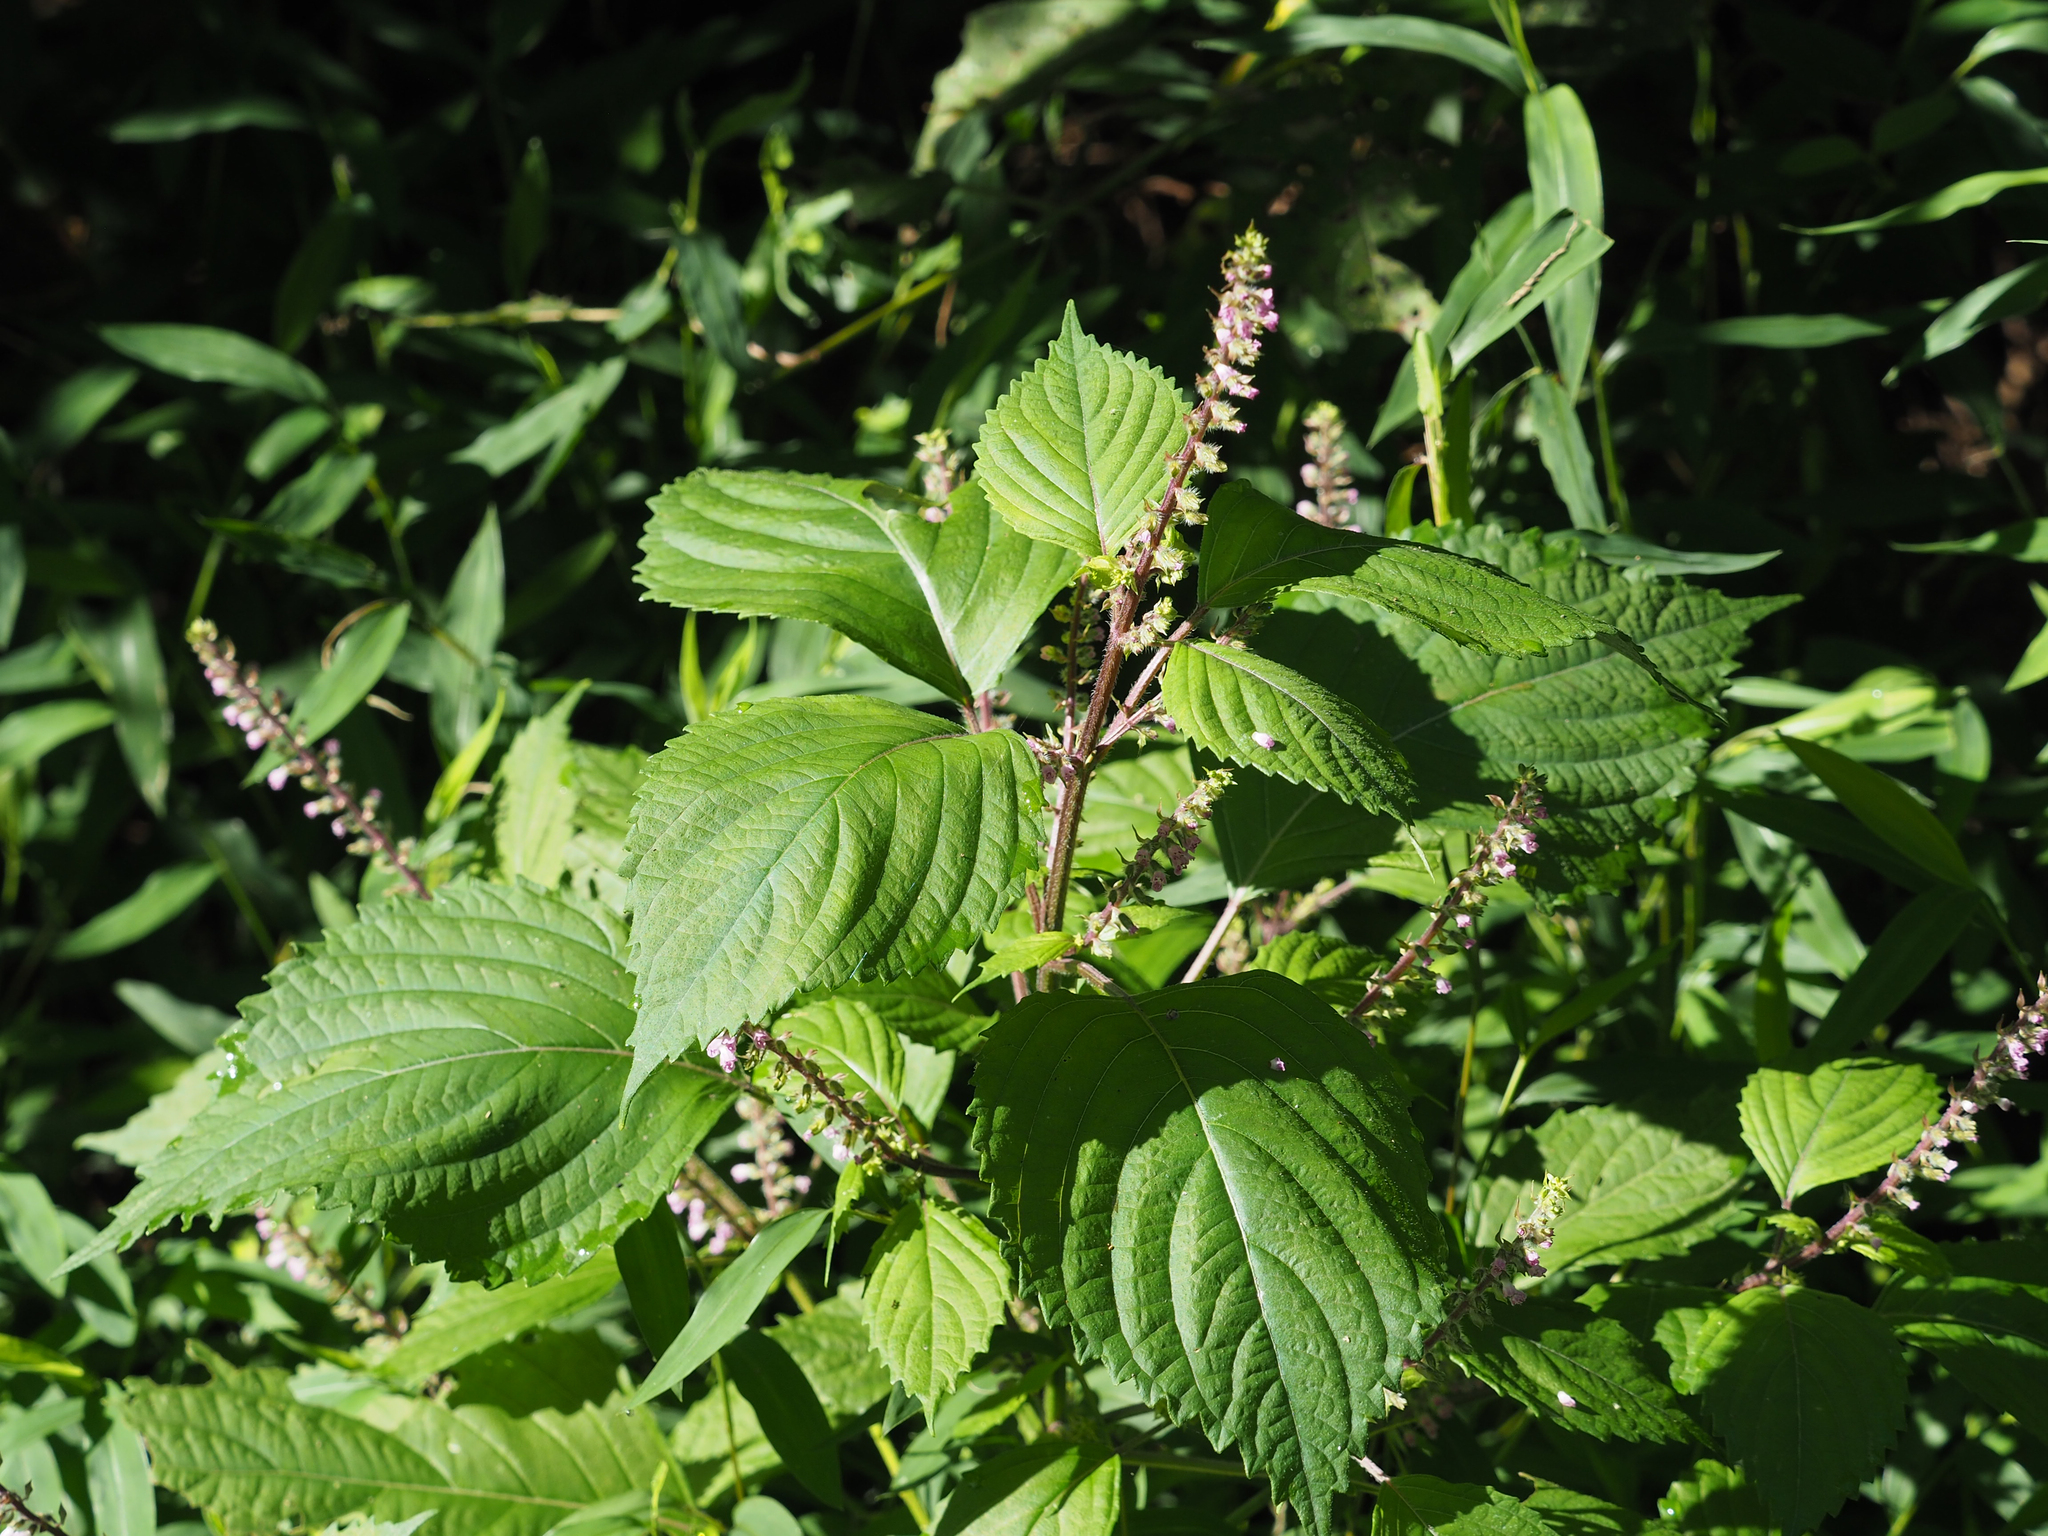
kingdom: Plantae
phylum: Tracheophyta
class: Magnoliopsida
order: Lamiales
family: Lamiaceae
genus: Perilla
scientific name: Perilla frutescens
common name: Perilla
